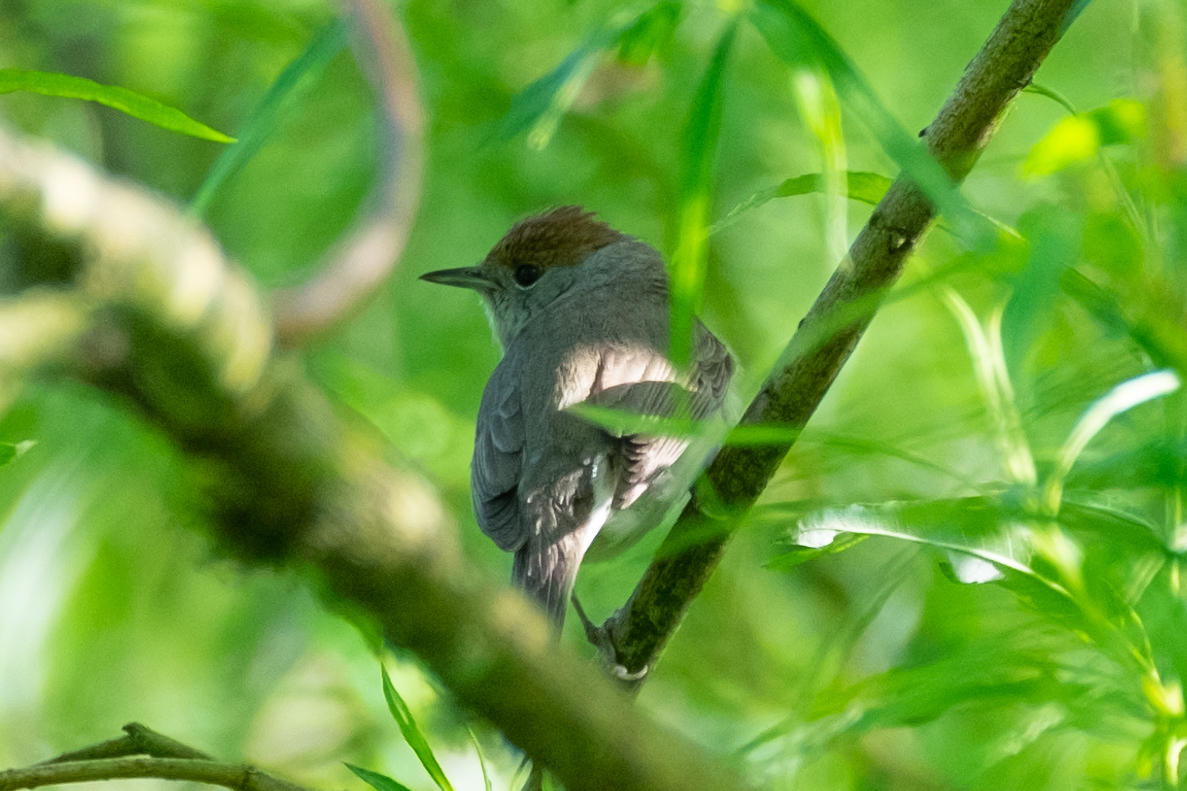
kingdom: Animalia
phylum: Chordata
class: Aves
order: Passeriformes
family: Sylviidae
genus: Sylvia
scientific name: Sylvia atricapilla
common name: Eurasian blackcap
